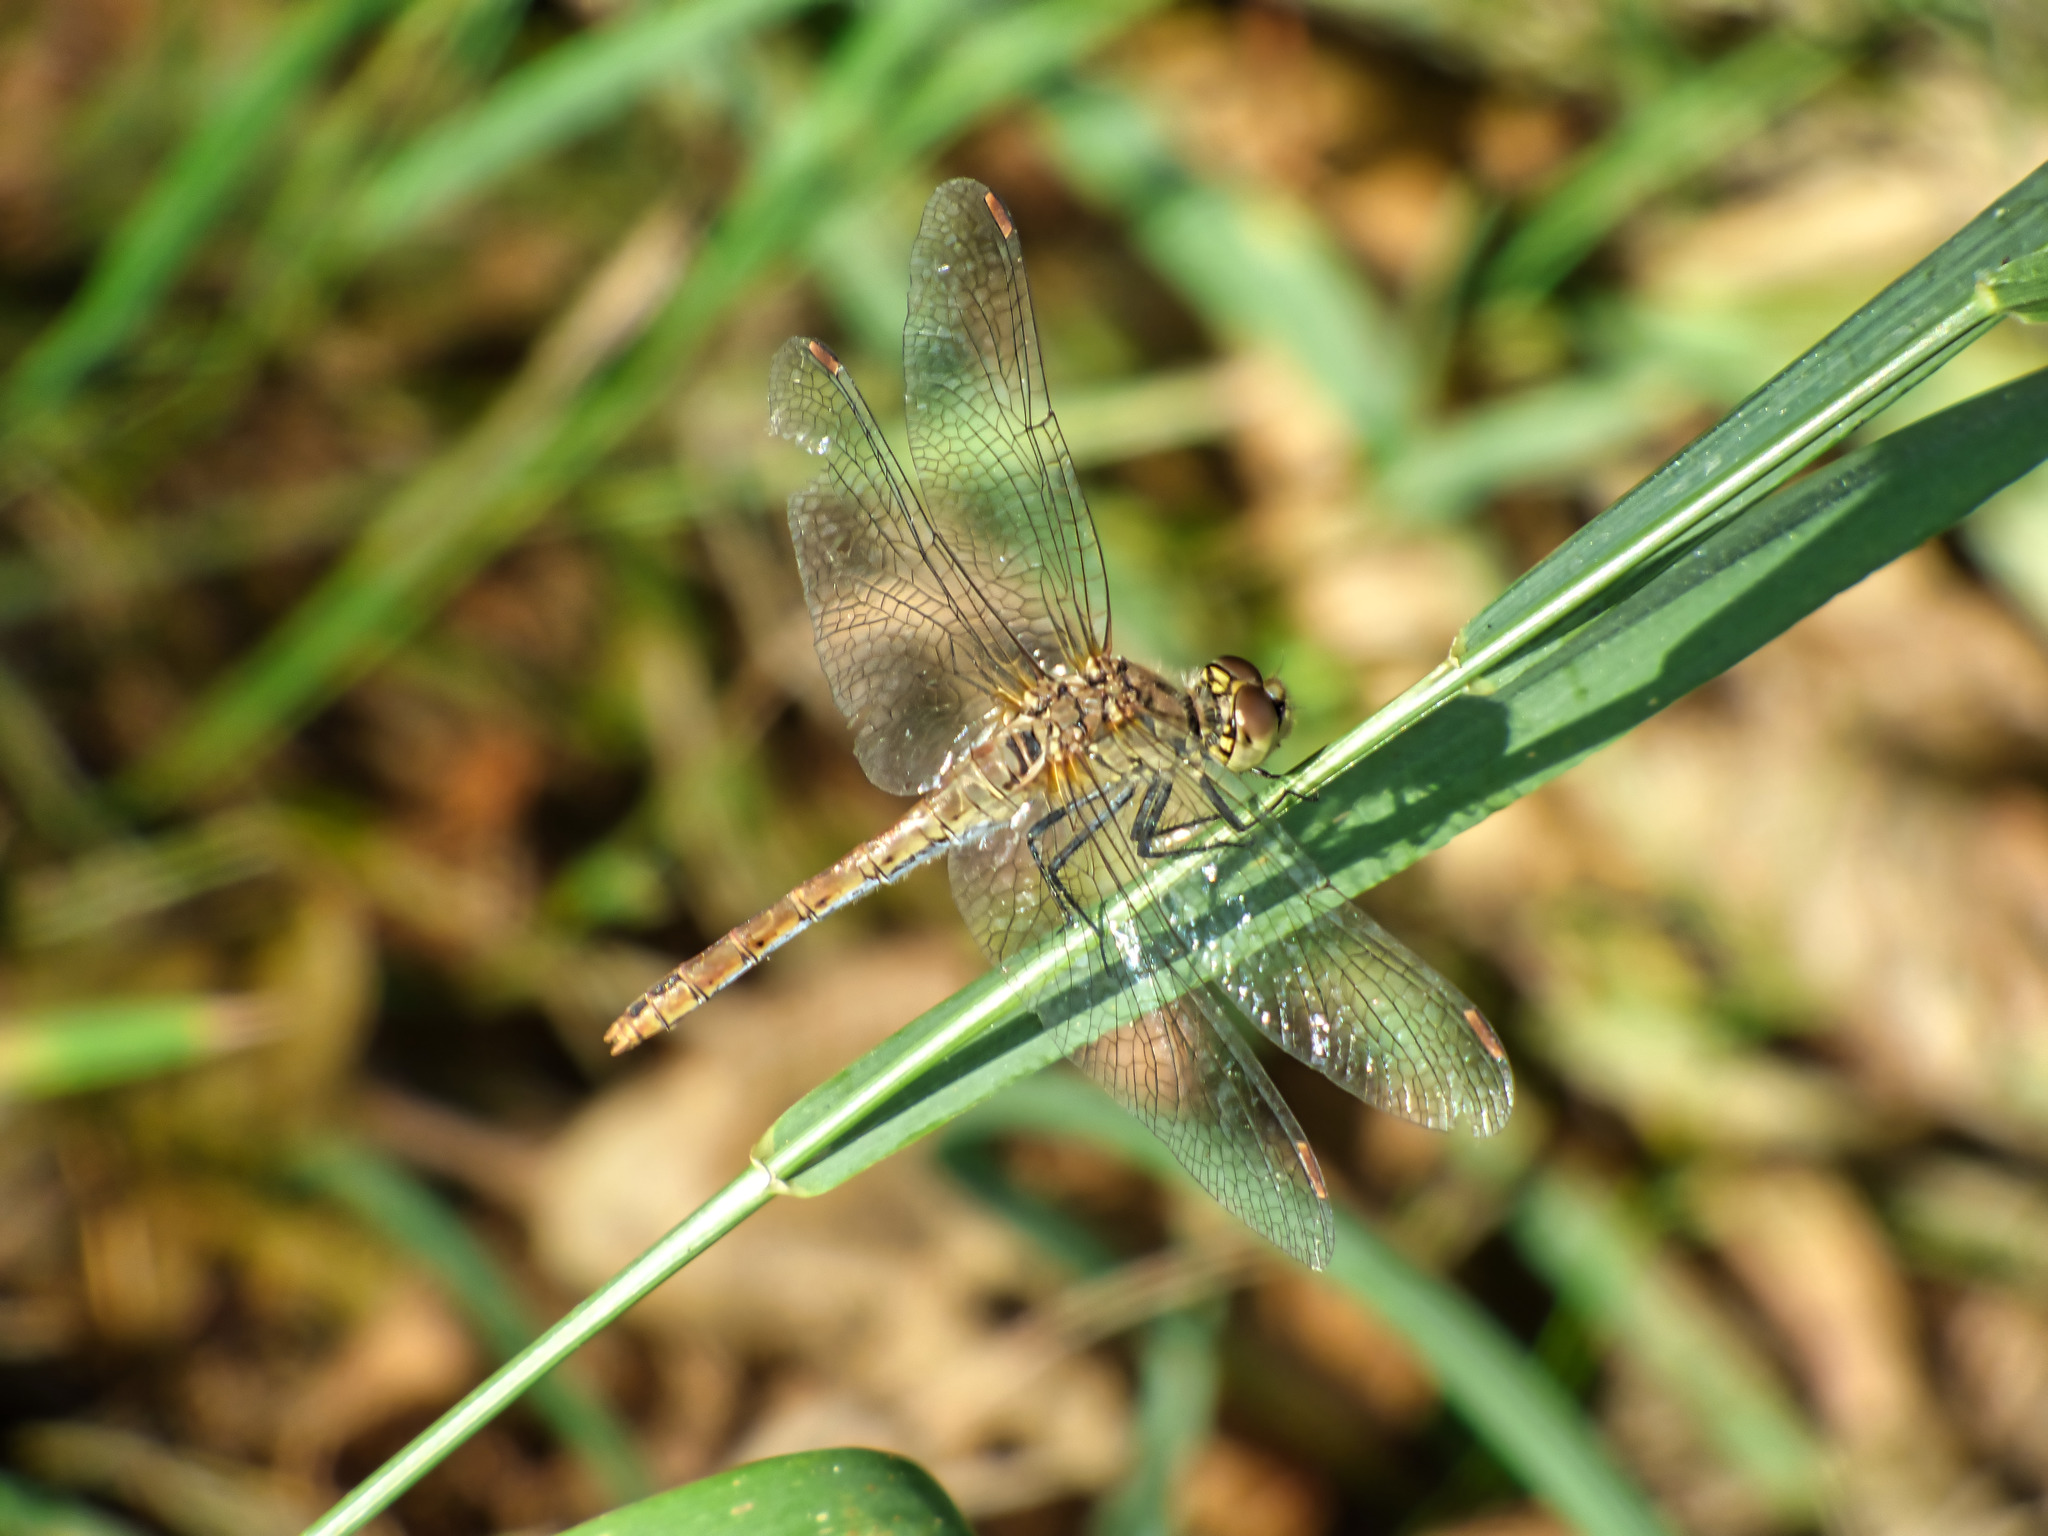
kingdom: Animalia
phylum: Arthropoda
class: Insecta
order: Odonata
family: Libellulidae
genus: Sympetrum
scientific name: Sympetrum sanguineum
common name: Ruddy darter
